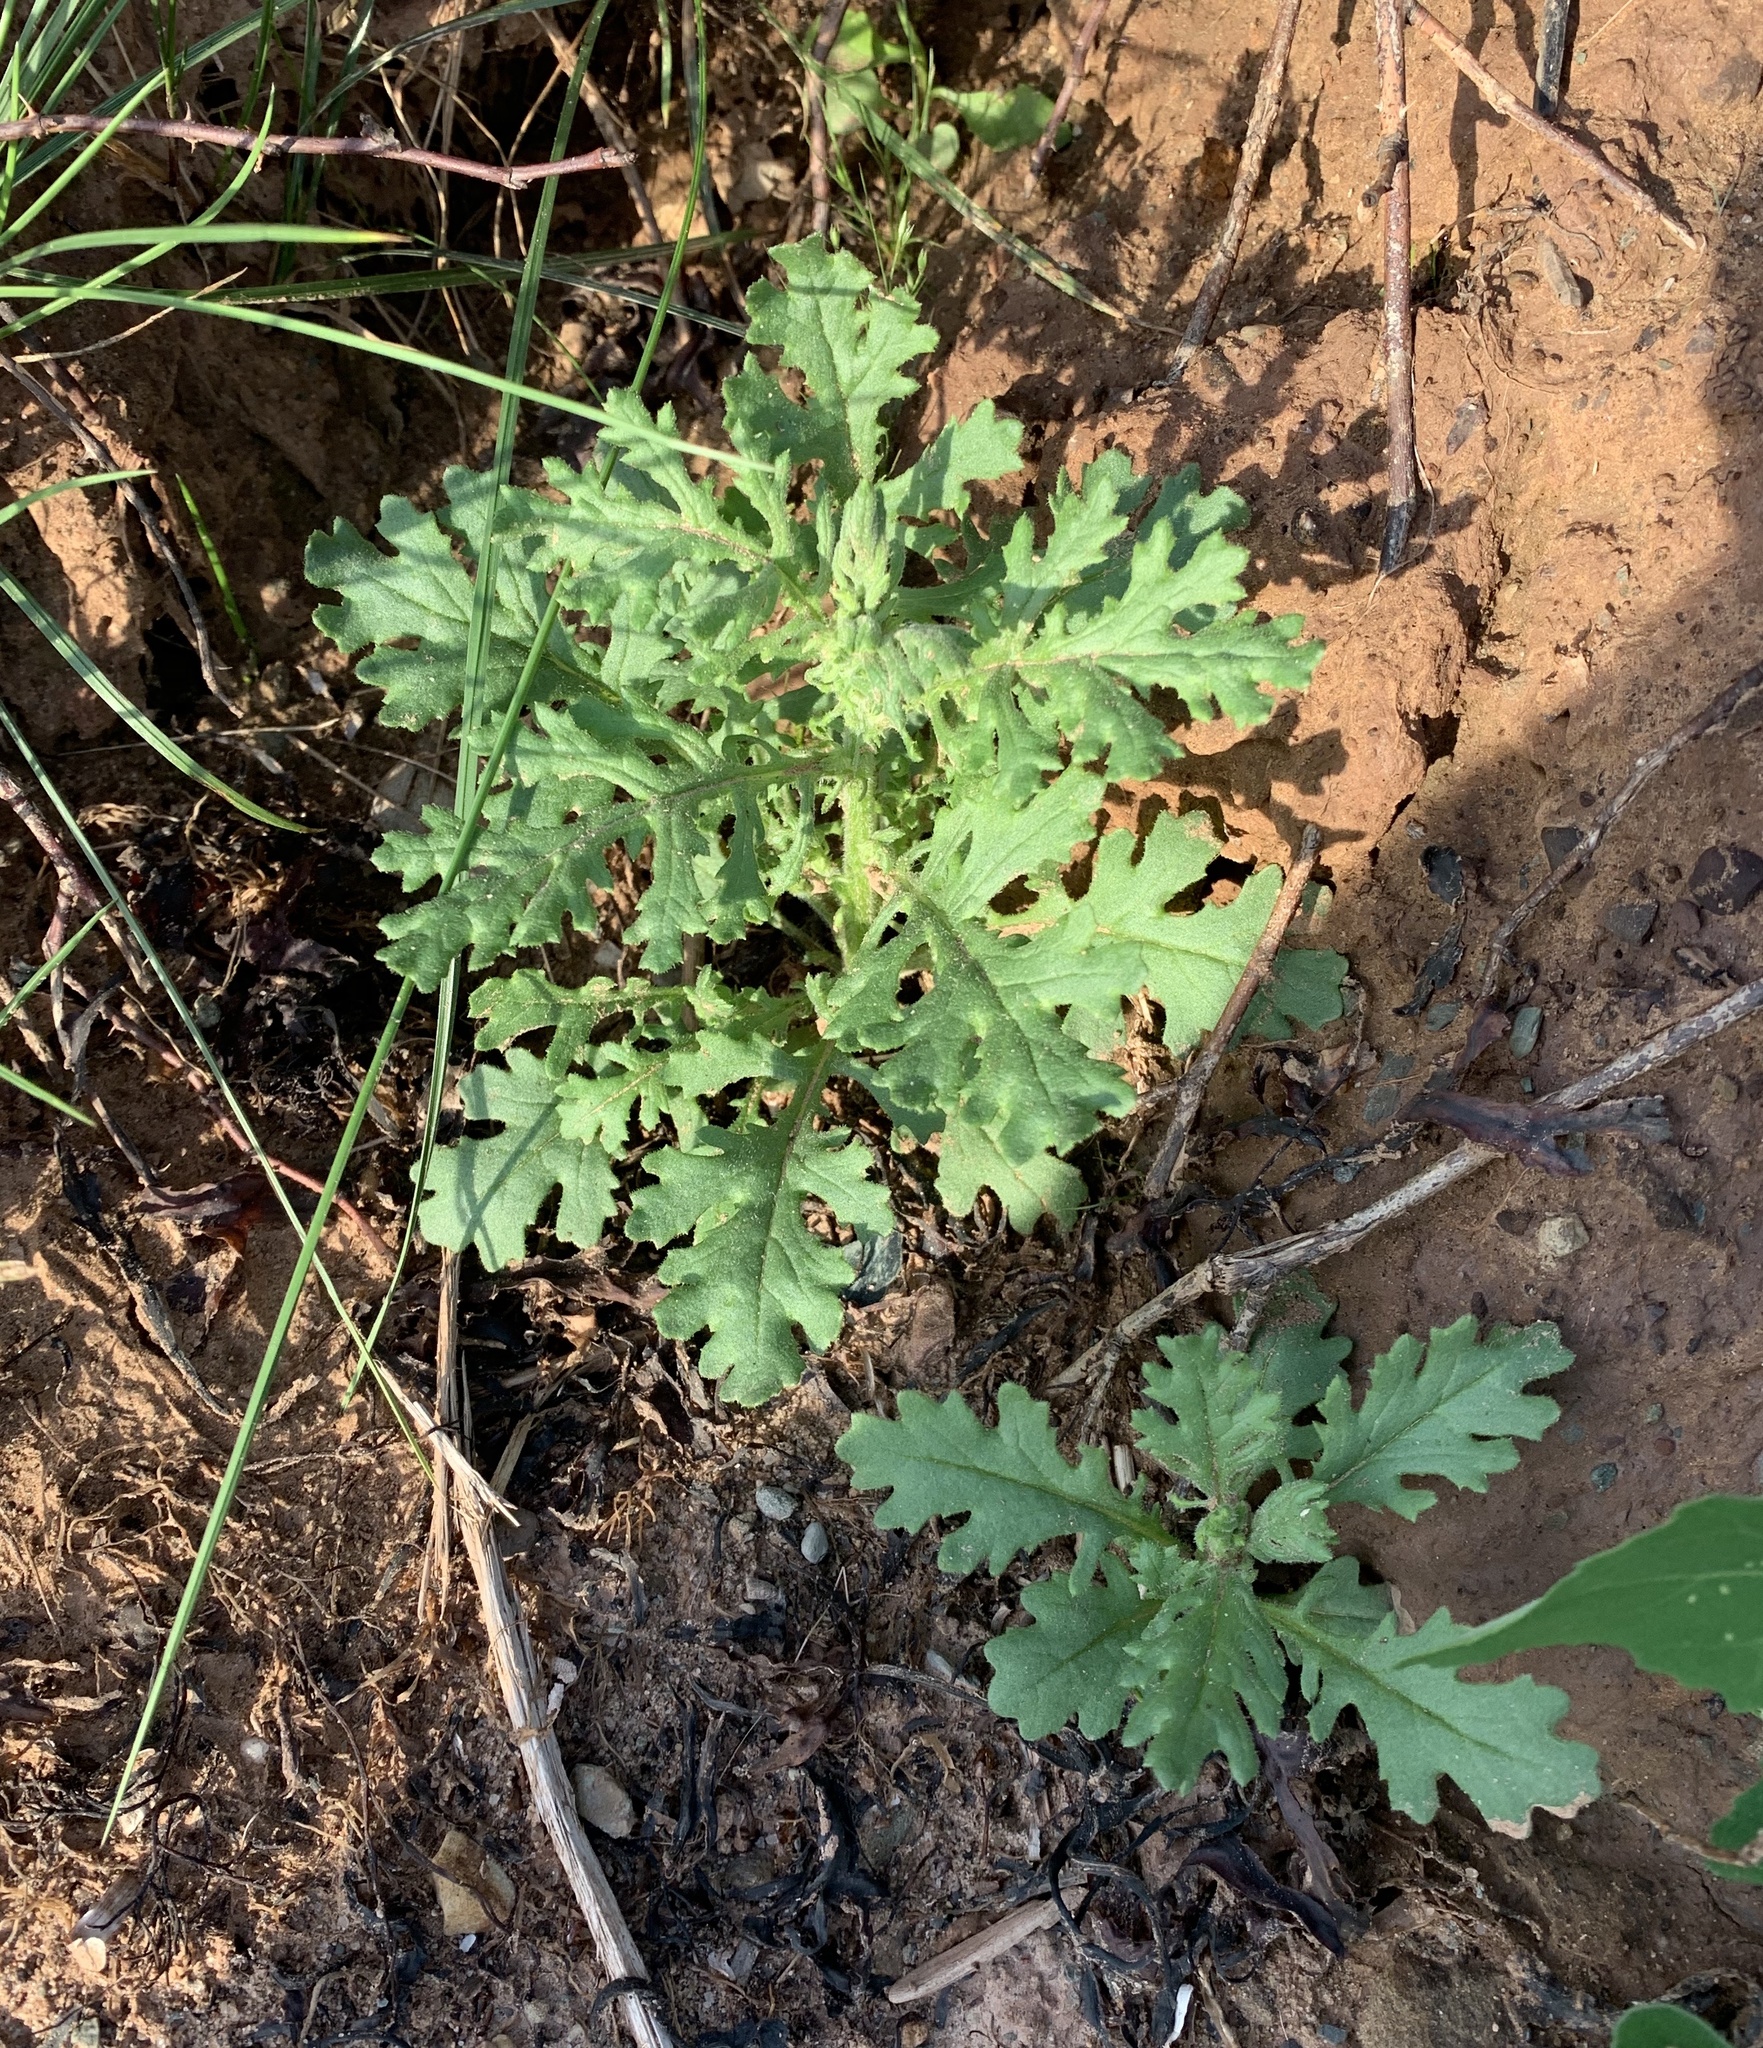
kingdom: Plantae
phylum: Tracheophyta
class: Magnoliopsida
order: Asterales
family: Asteraceae
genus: Senecio
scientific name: Senecio viscosus
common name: Sticky groundsel
